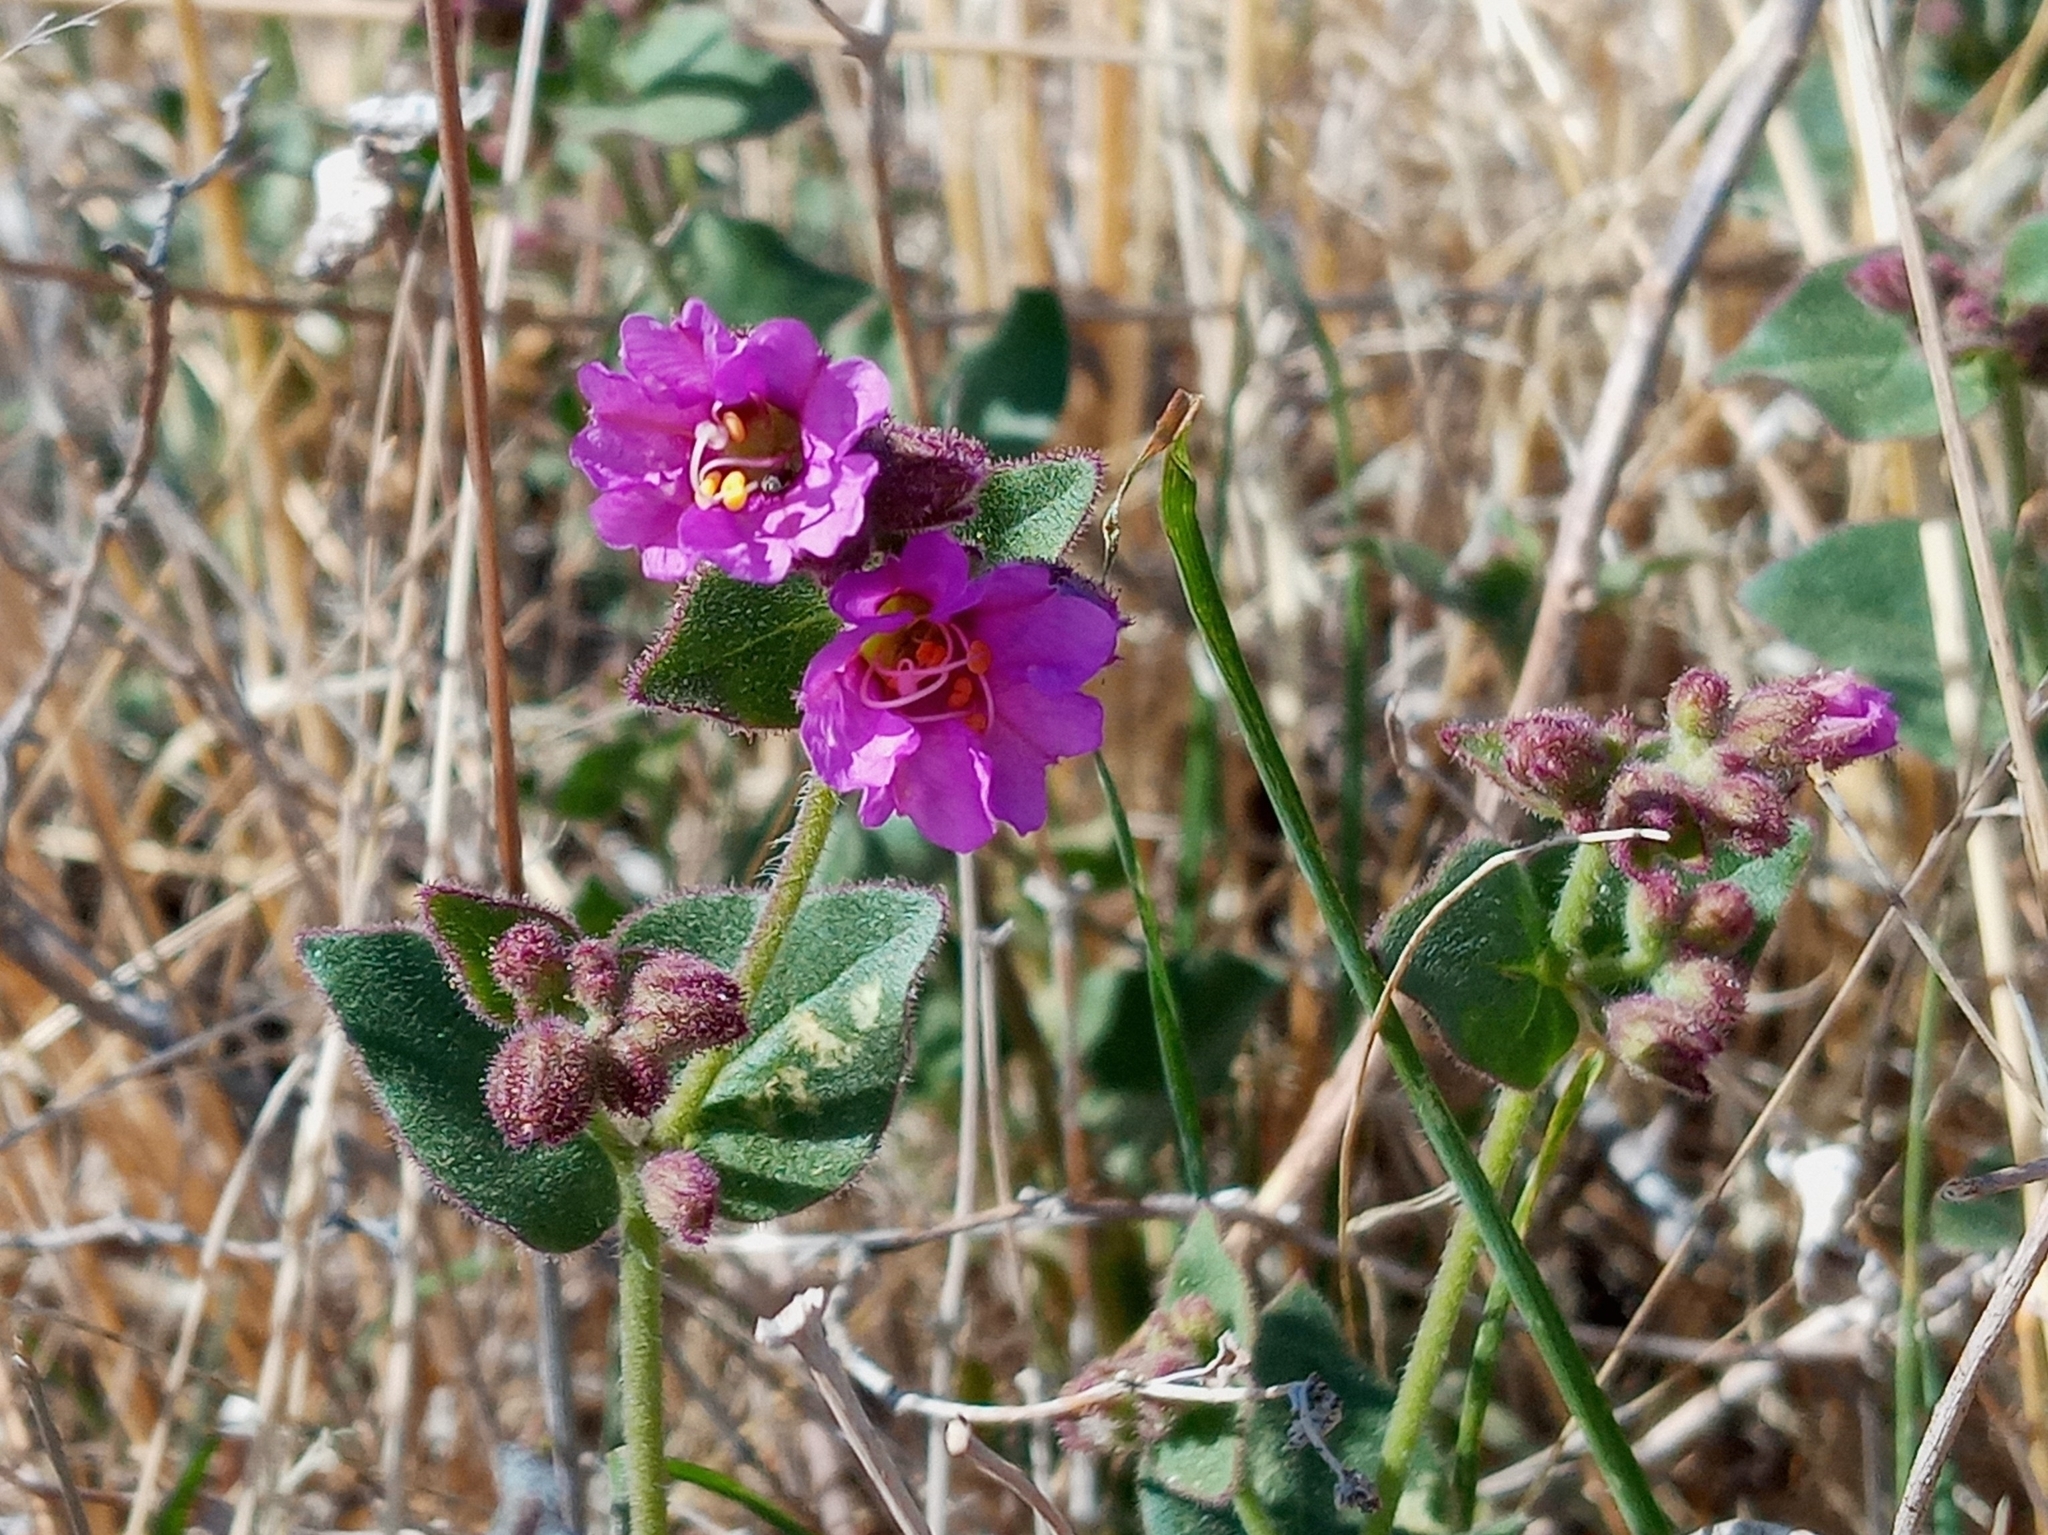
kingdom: Plantae
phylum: Tracheophyta
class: Magnoliopsida
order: Caryophyllales
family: Nyctaginaceae
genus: Mirabilis
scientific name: Mirabilis laevis
